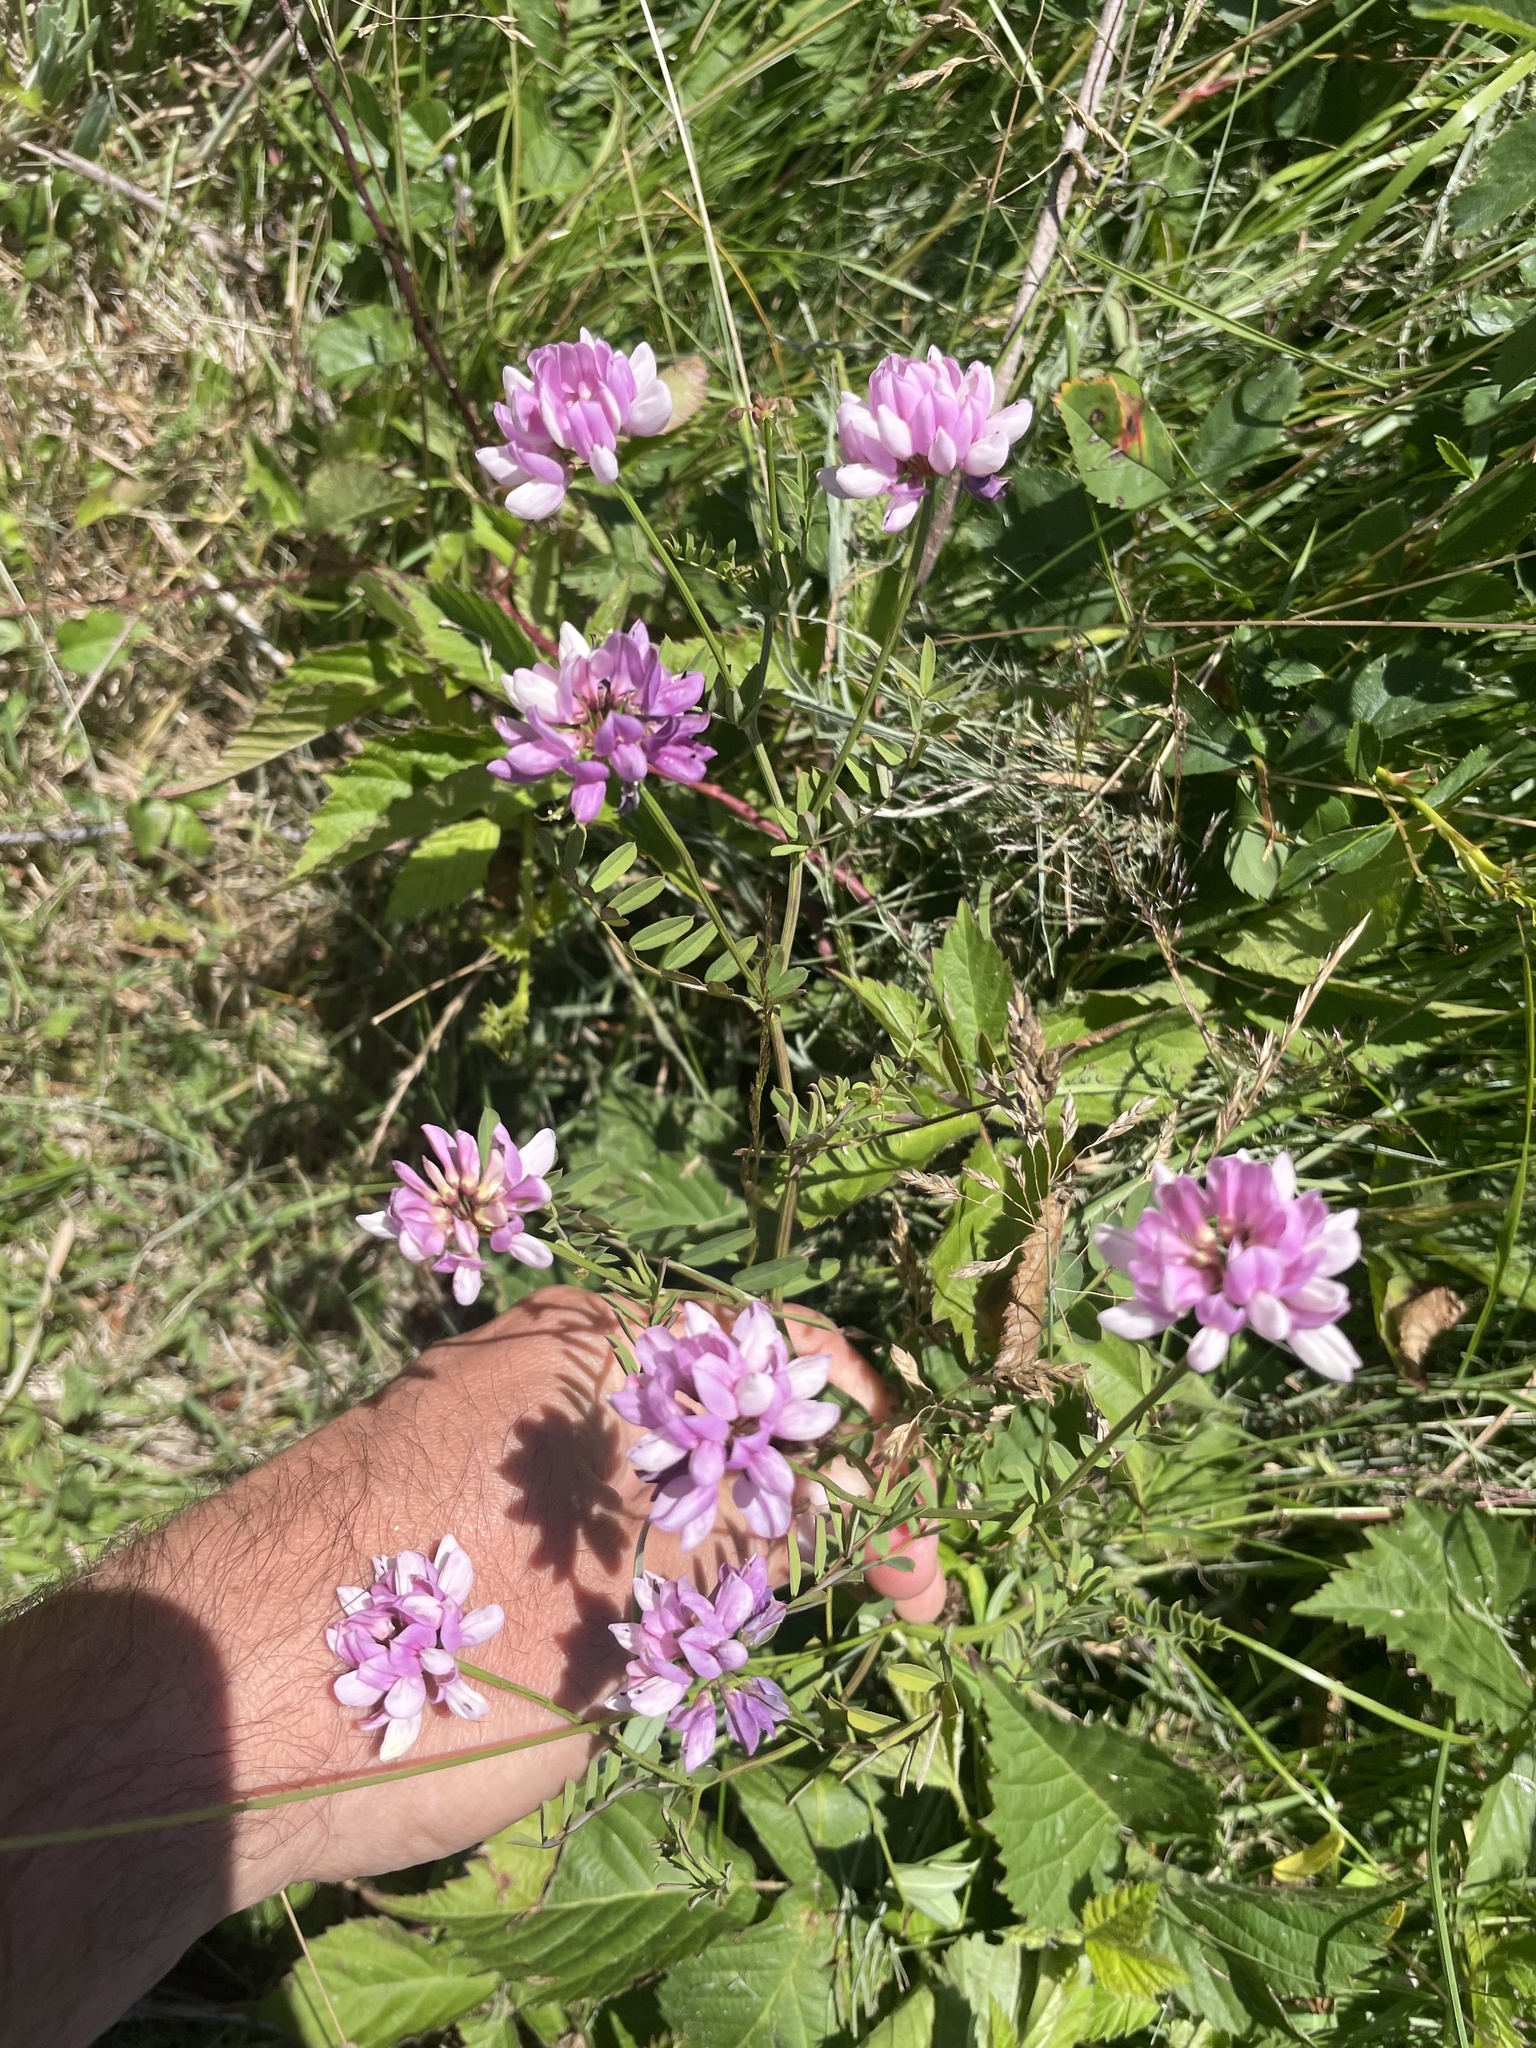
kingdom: Plantae
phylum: Tracheophyta
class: Magnoliopsida
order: Fabales
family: Fabaceae
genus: Coronilla
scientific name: Coronilla varia
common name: Crownvetch
